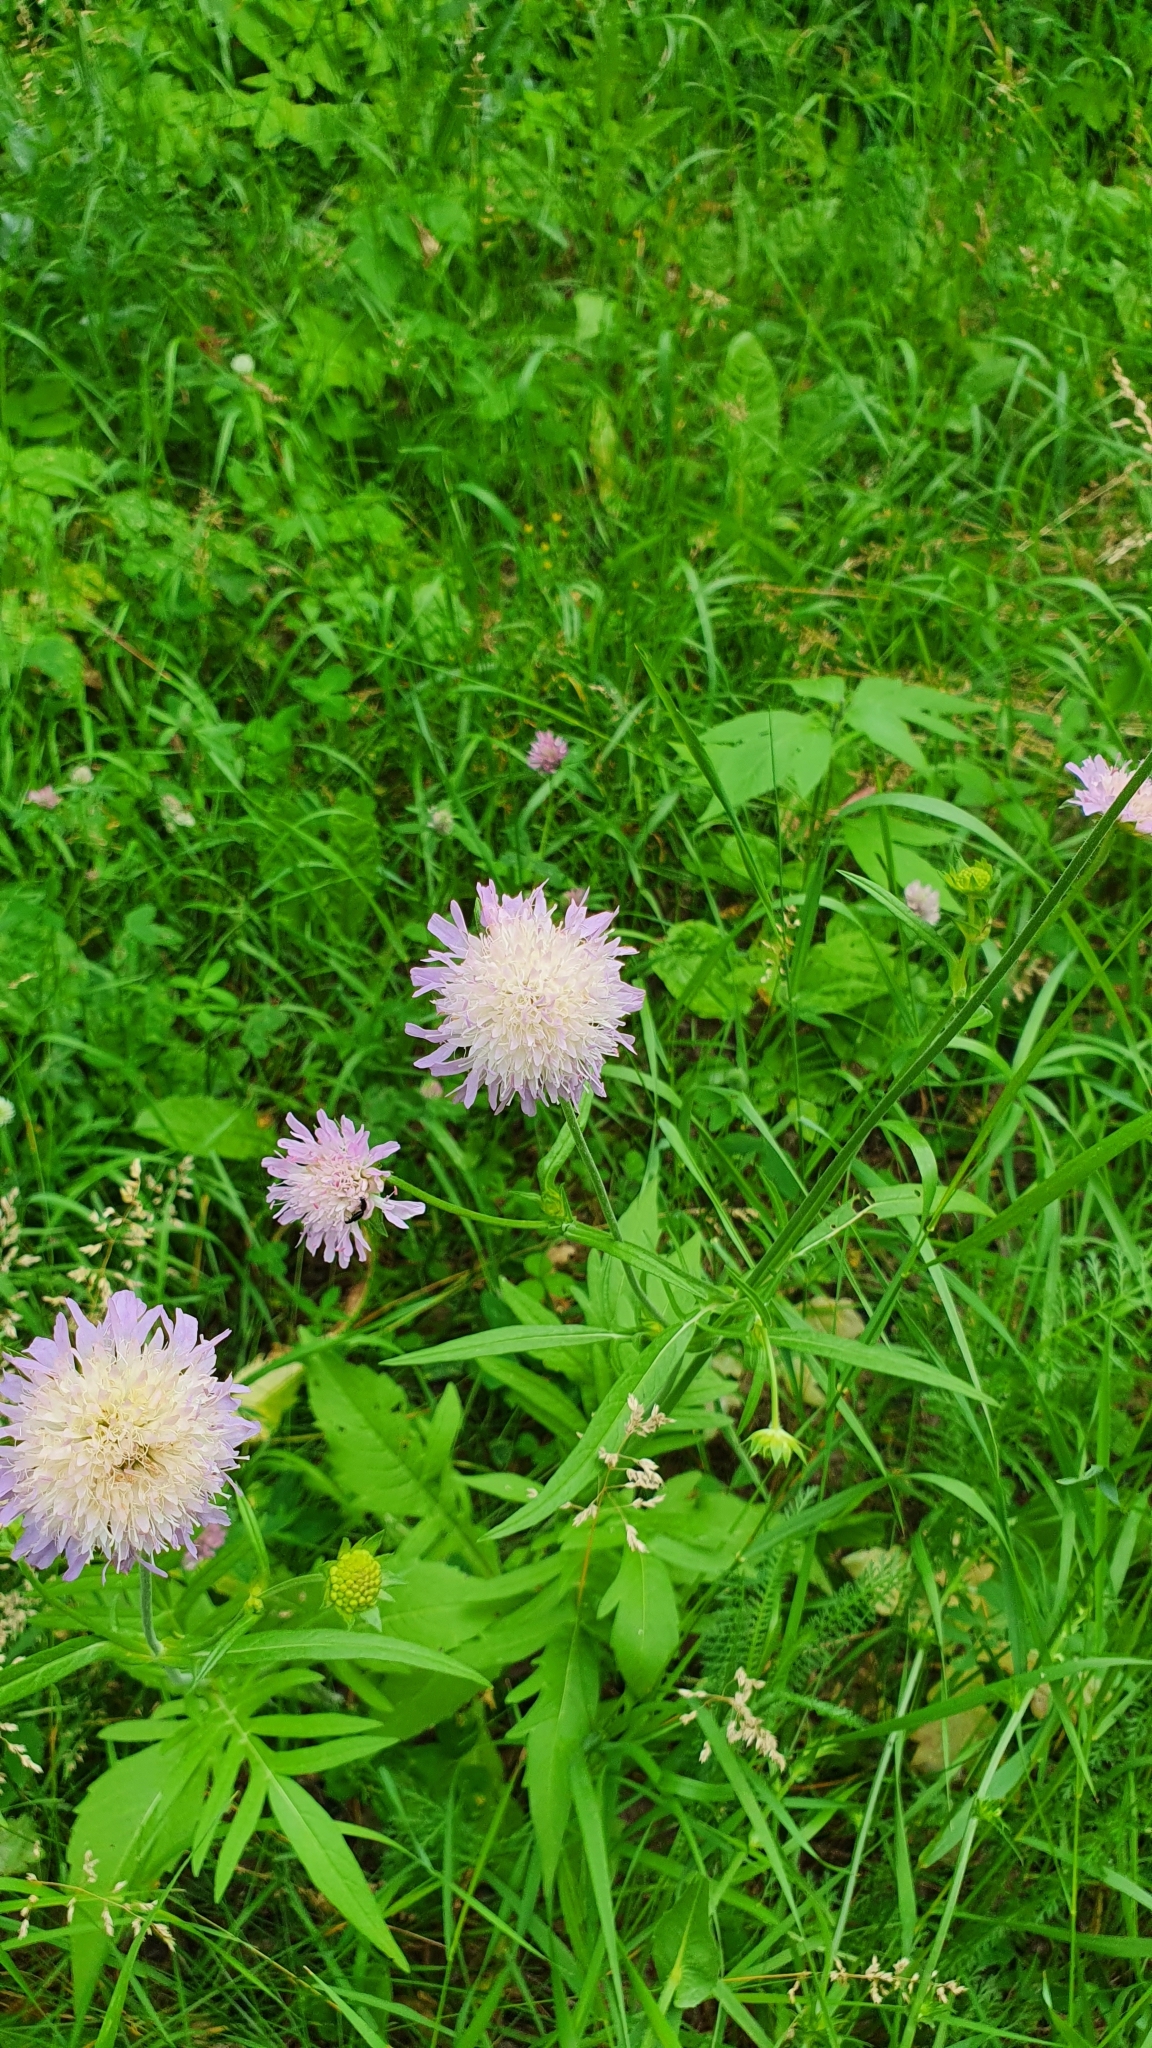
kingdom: Plantae
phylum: Tracheophyta
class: Magnoliopsida
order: Dipsacales
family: Caprifoliaceae
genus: Knautia
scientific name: Knautia arvensis
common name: Field scabiosa
